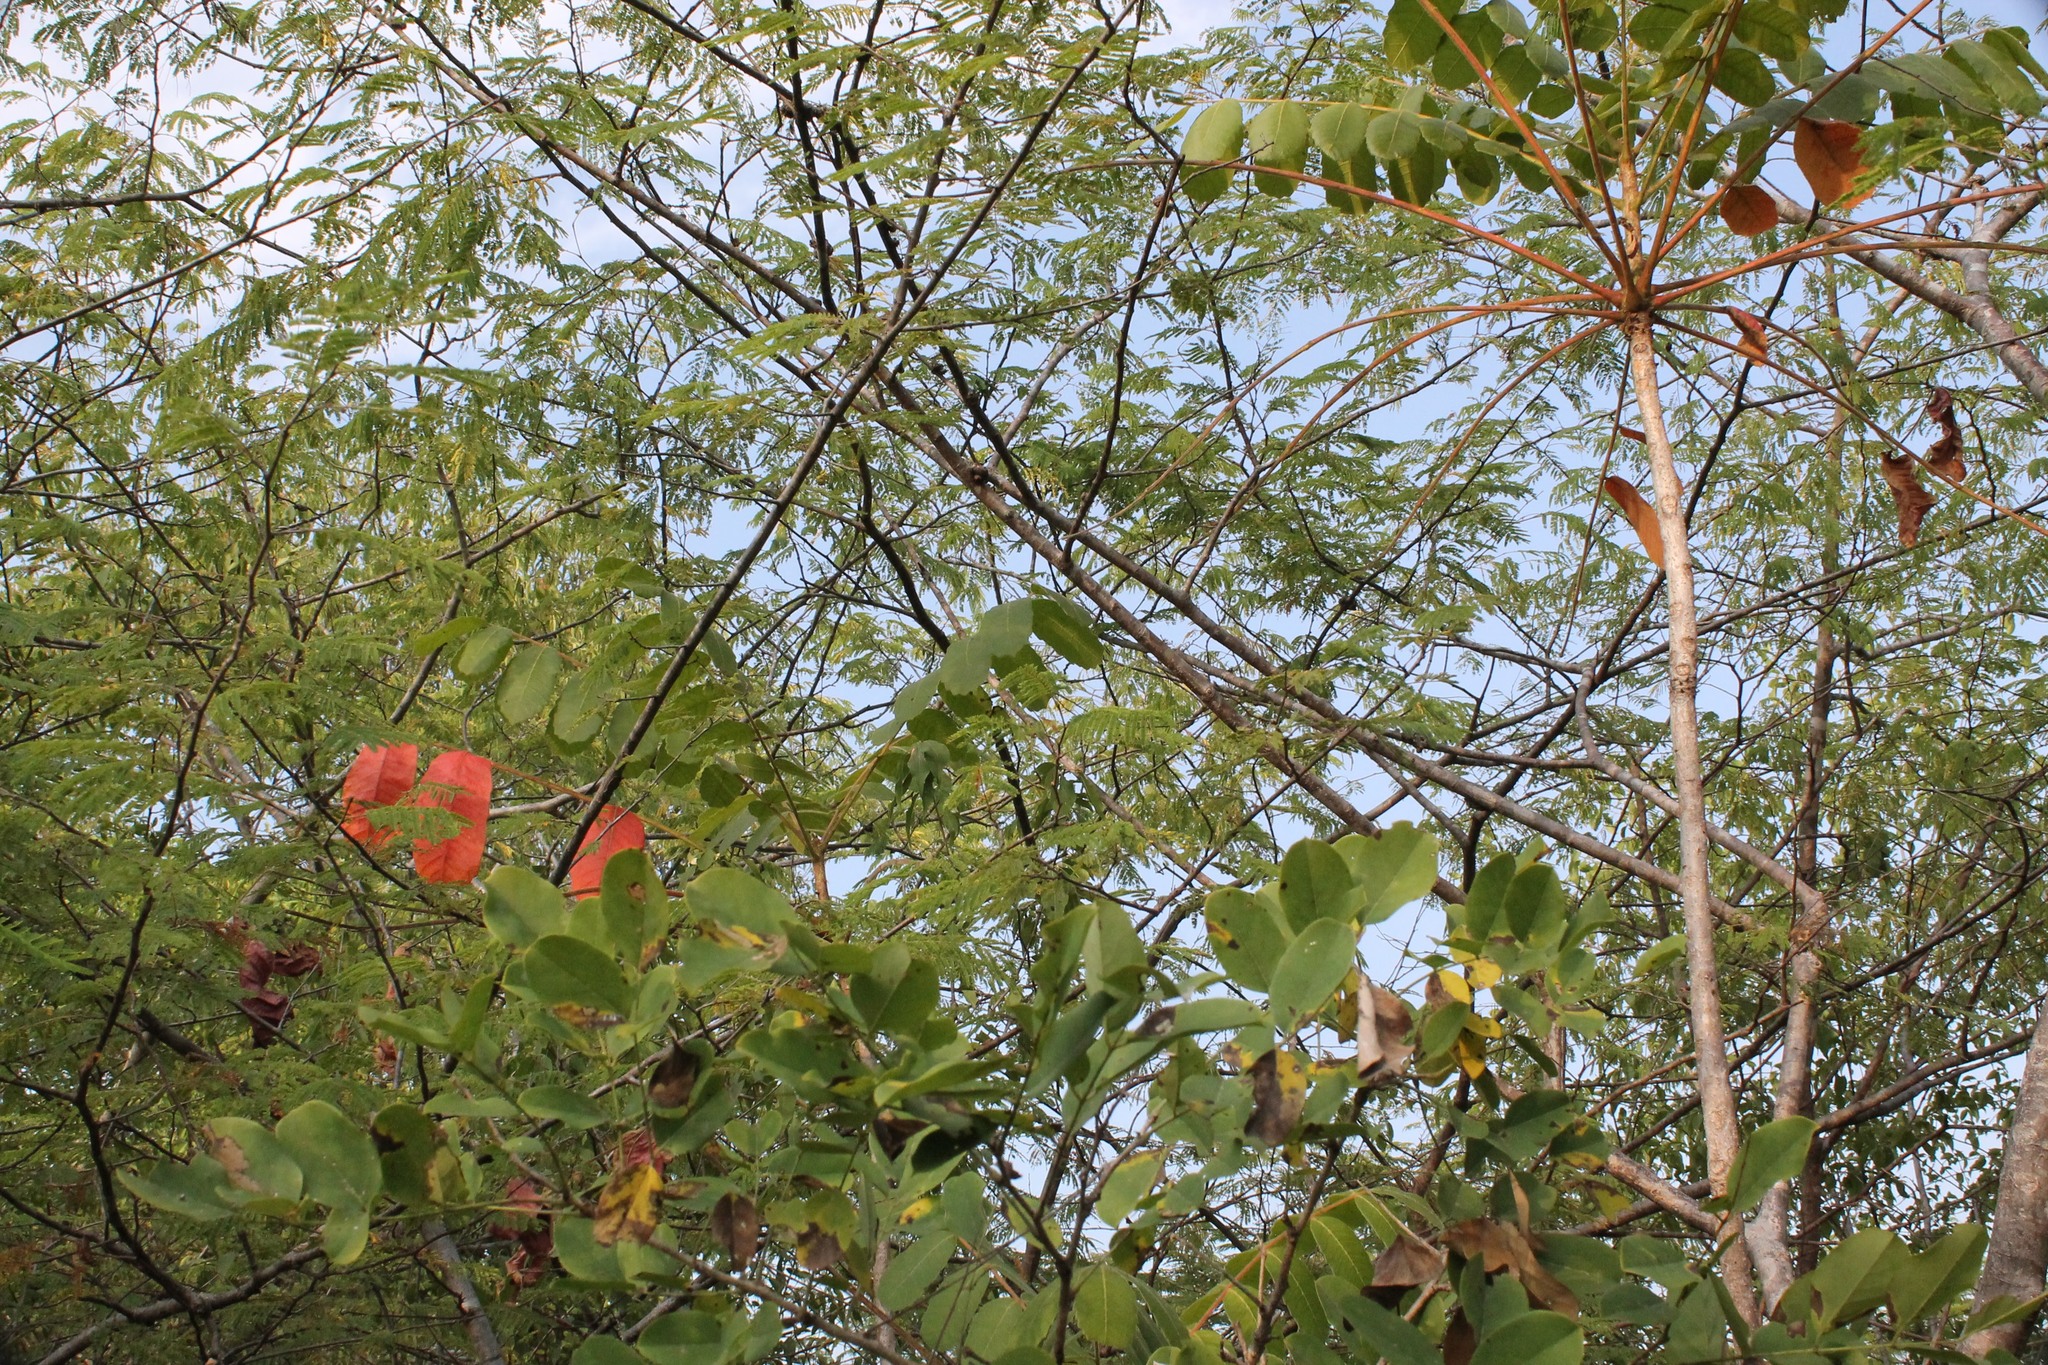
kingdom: Plantae
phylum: Tracheophyta
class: Magnoliopsida
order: Sapindales
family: Anacardiaceae
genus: Comocladia
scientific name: Comocladia macrophylla
